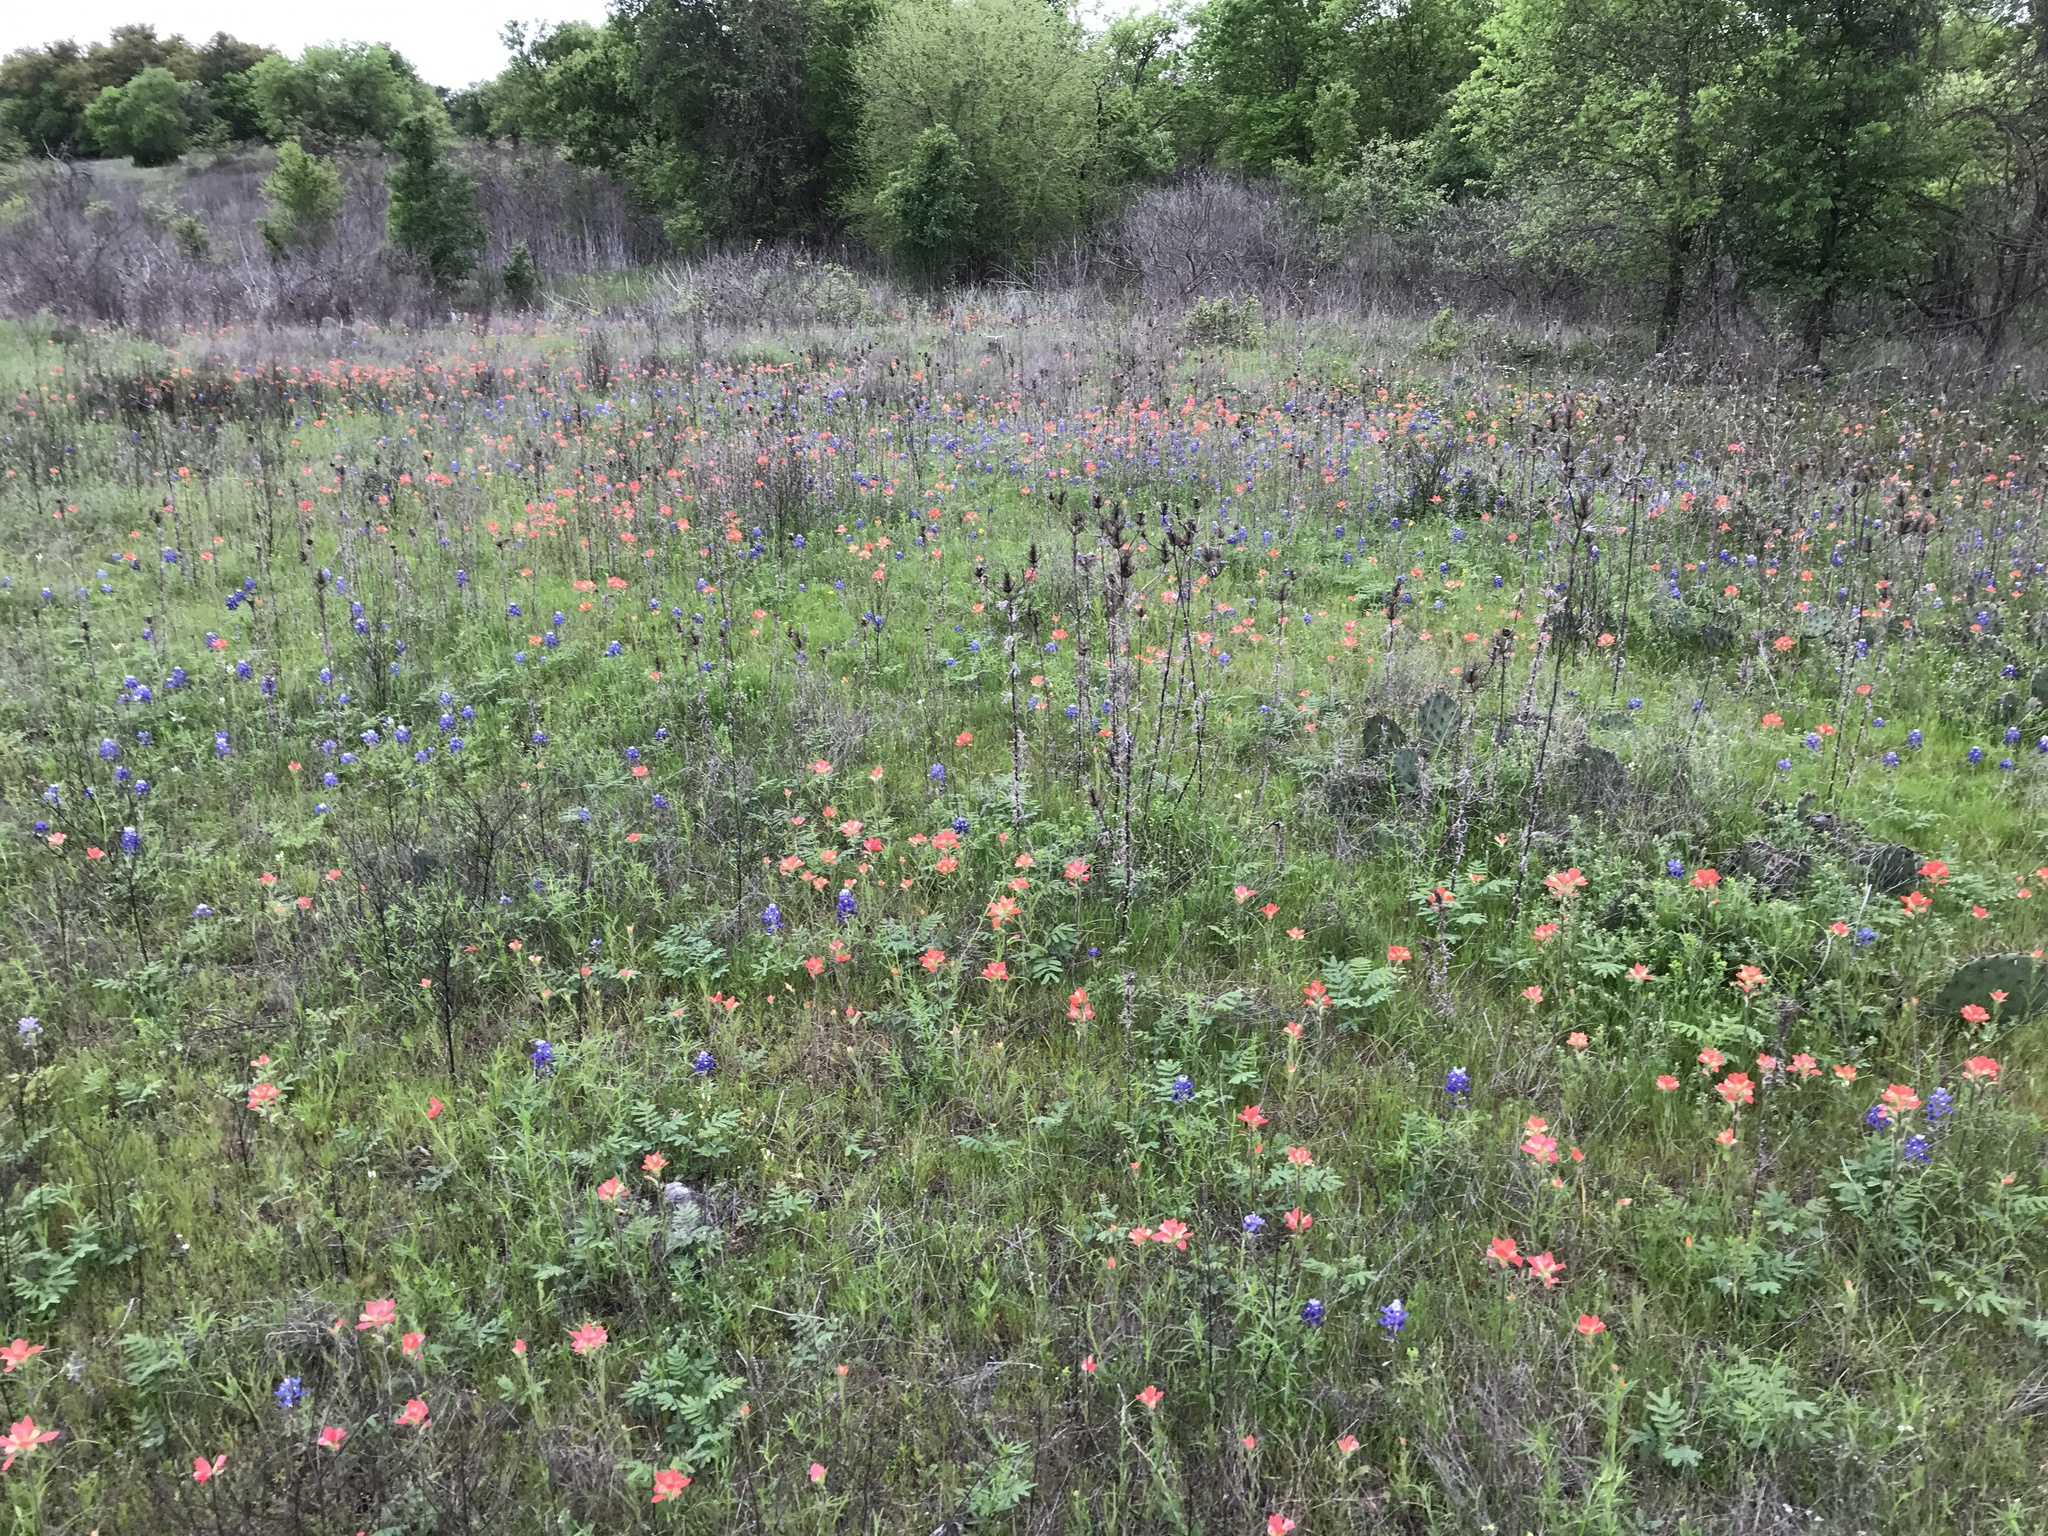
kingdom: Plantae
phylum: Tracheophyta
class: Magnoliopsida
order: Lamiales
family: Orobanchaceae
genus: Castilleja
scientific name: Castilleja indivisa
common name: Texas paintbrush
